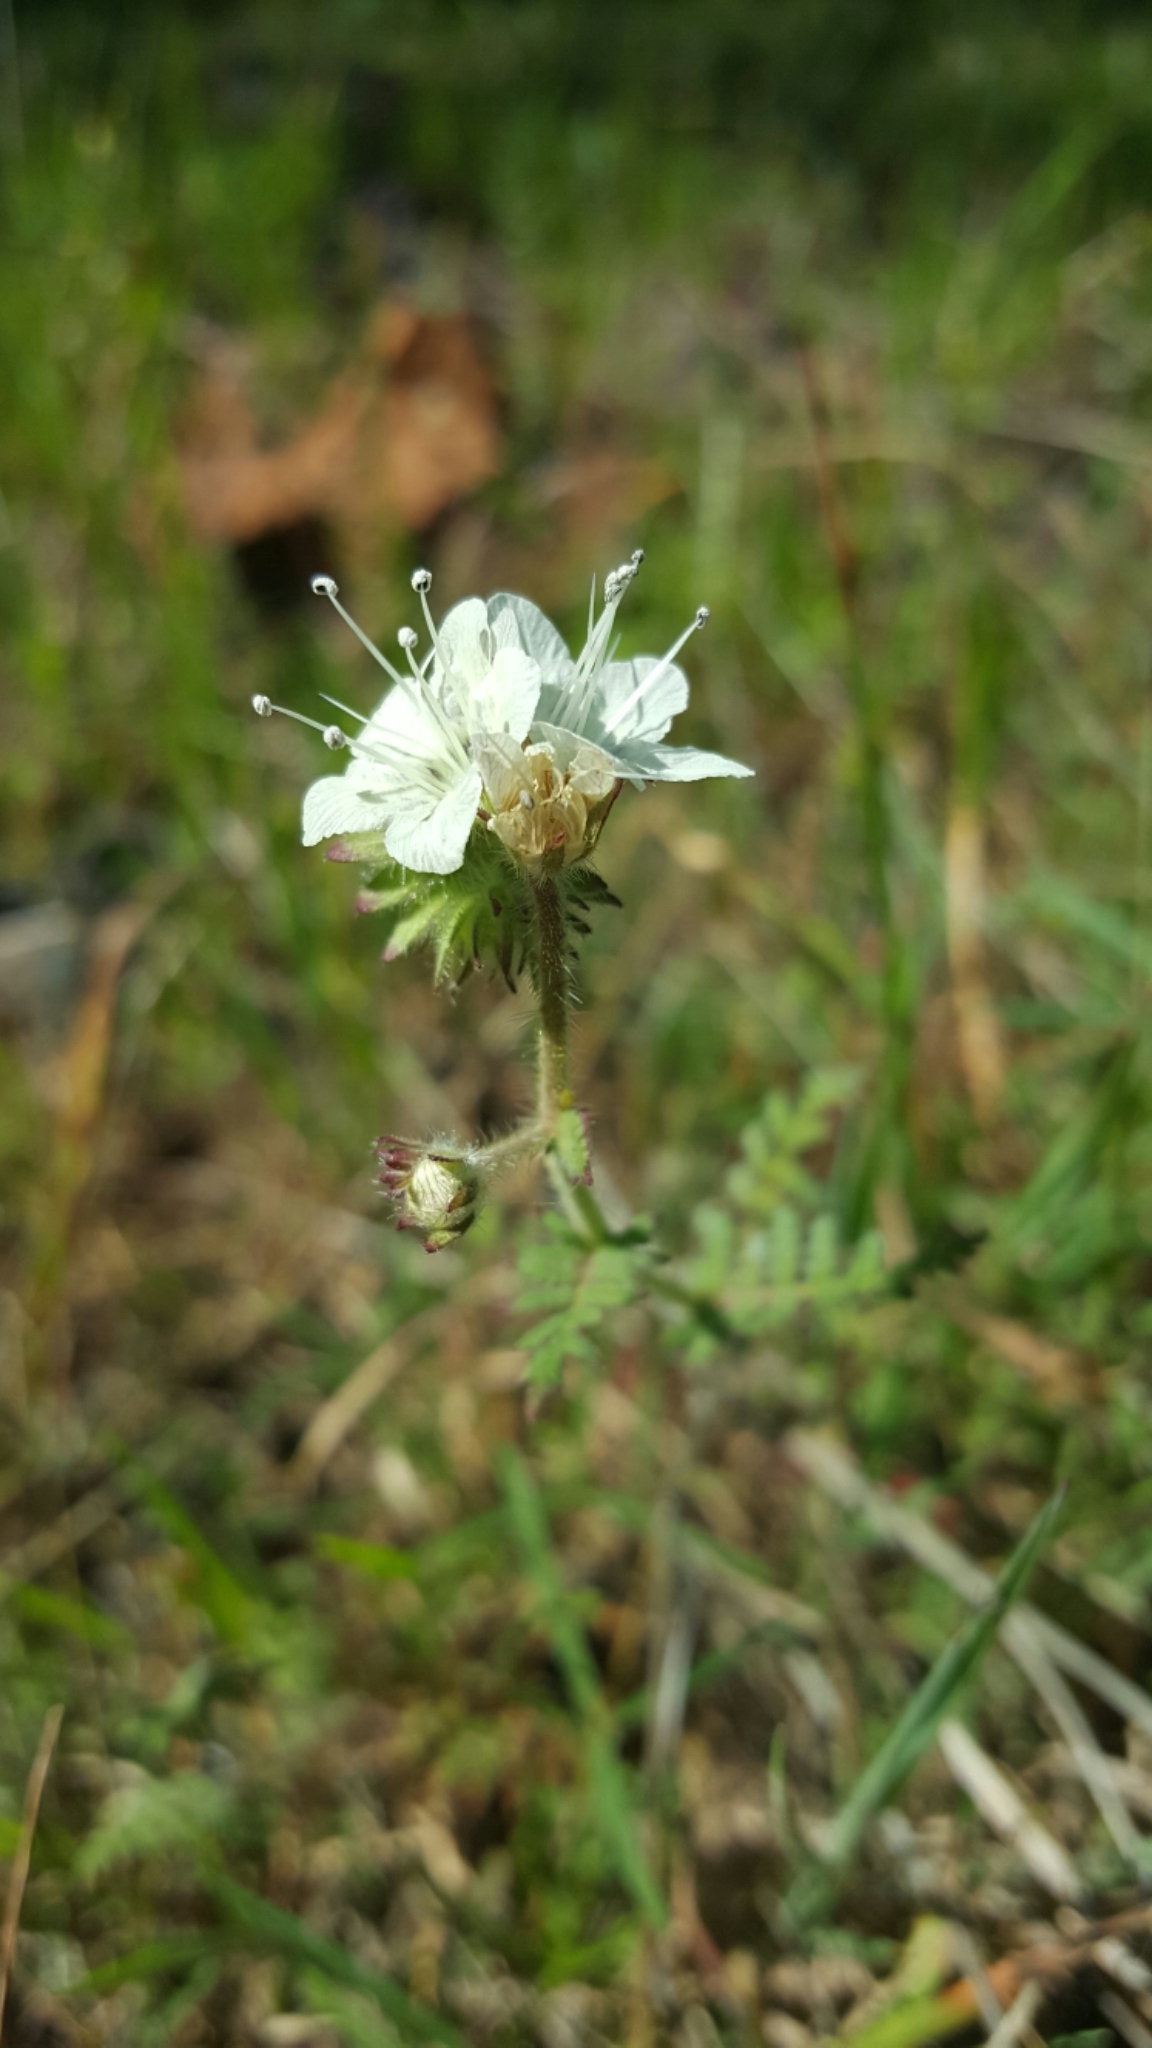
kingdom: Plantae
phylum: Tracheophyta
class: Magnoliopsida
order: Boraginales
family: Hydrophyllaceae
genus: Phacelia
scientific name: Phacelia distans
